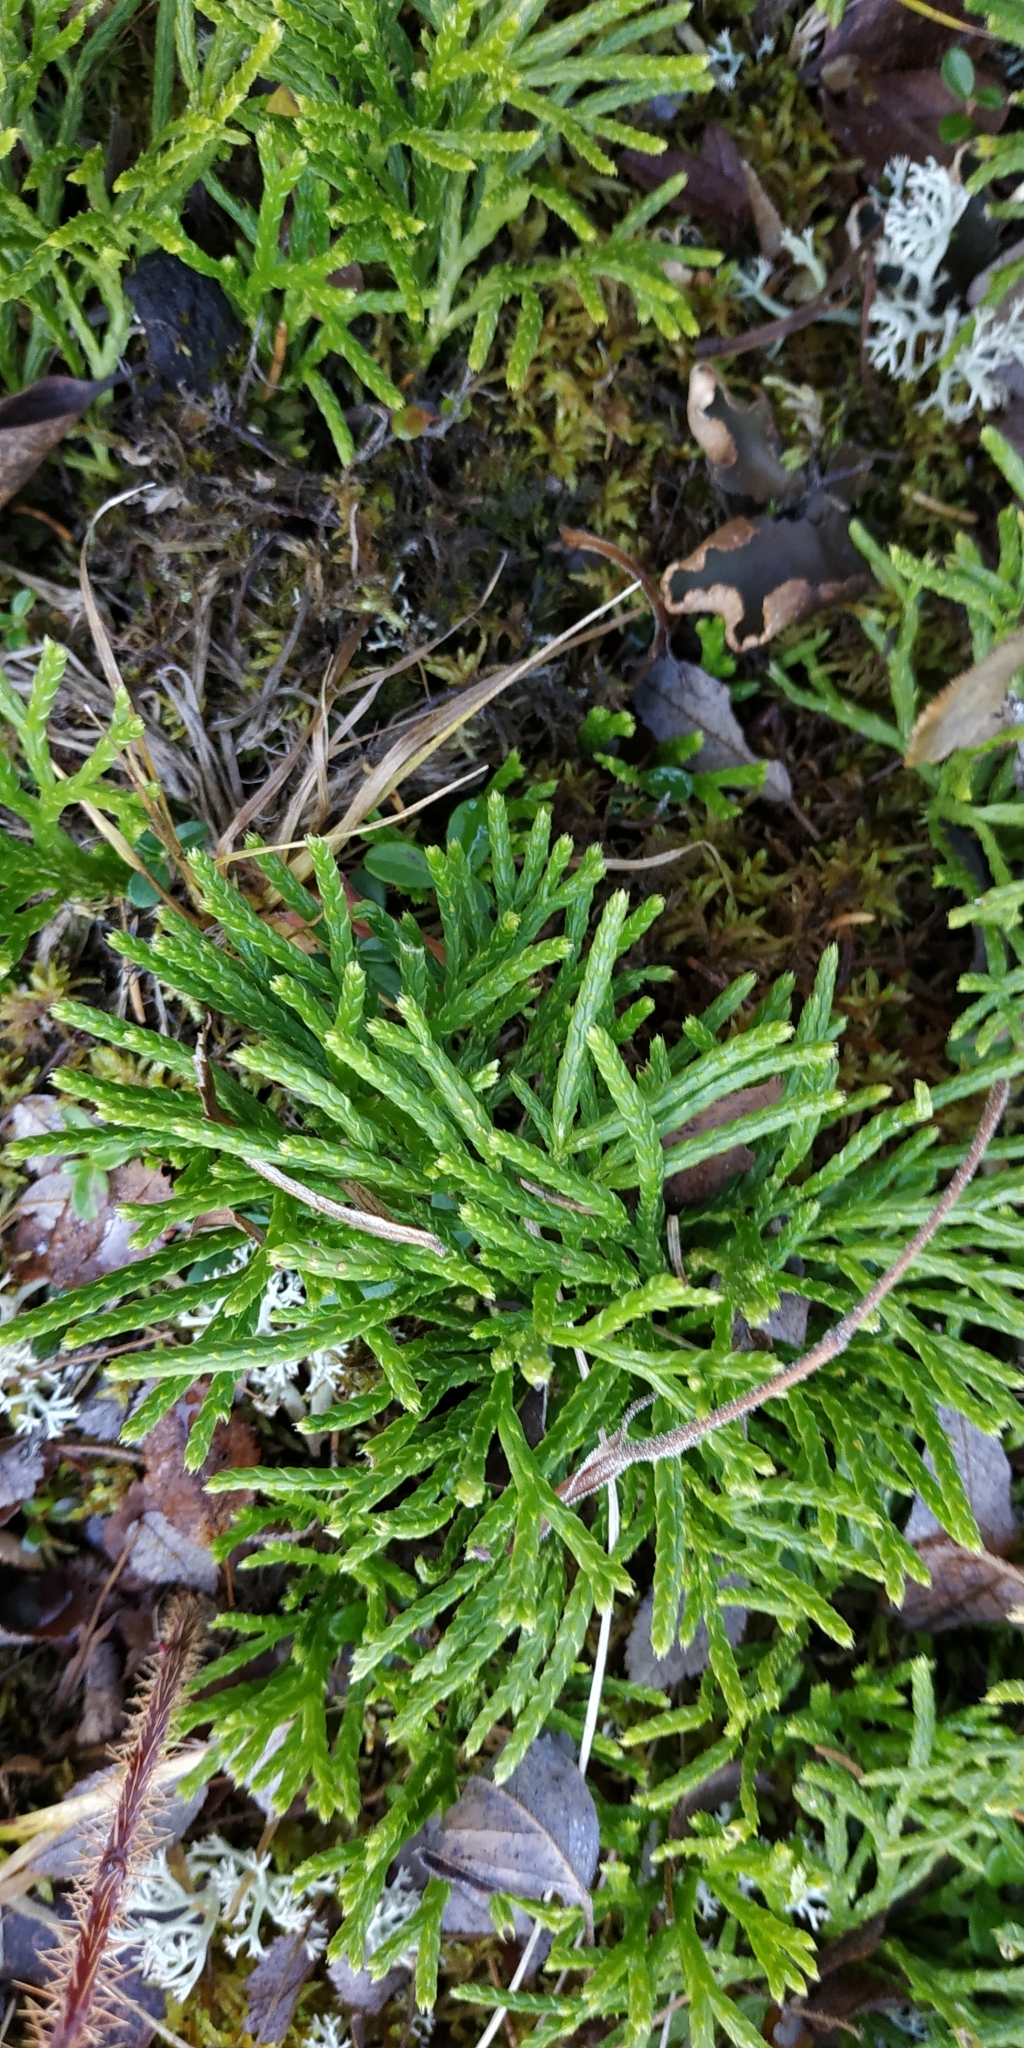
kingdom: Plantae
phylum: Tracheophyta
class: Lycopodiopsida
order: Lycopodiales
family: Lycopodiaceae
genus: Diphasiastrum
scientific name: Diphasiastrum complanatum
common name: Northern running-pine
